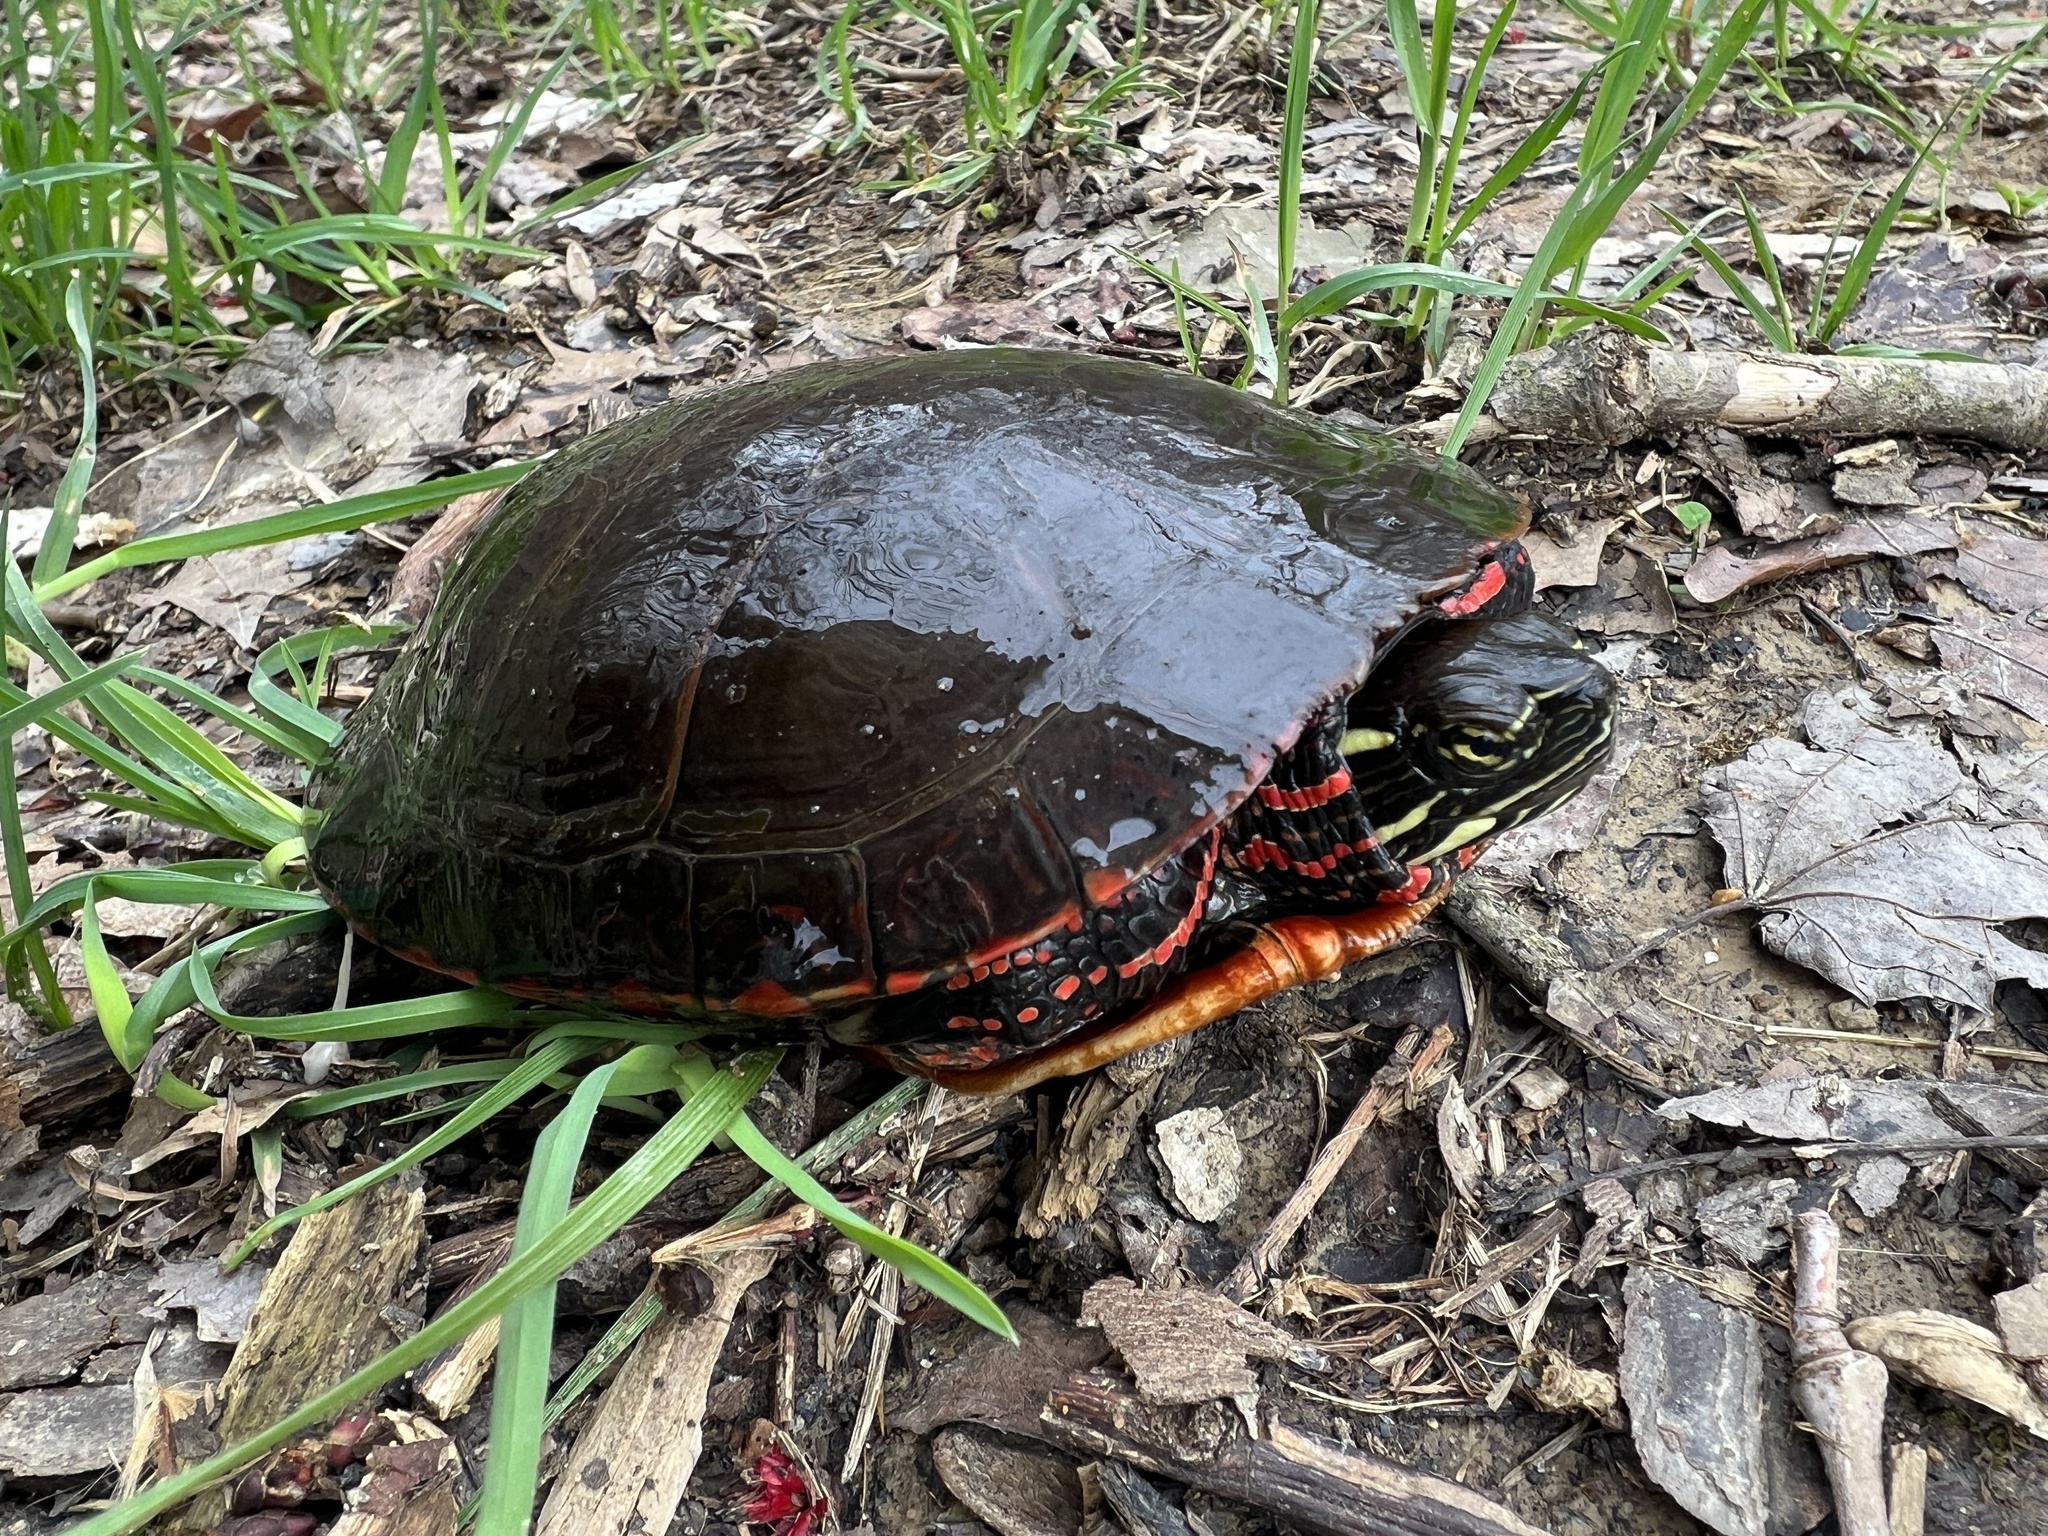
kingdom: Animalia
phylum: Chordata
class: Testudines
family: Emydidae
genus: Chrysemys
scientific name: Chrysemys picta
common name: Painted turtle
